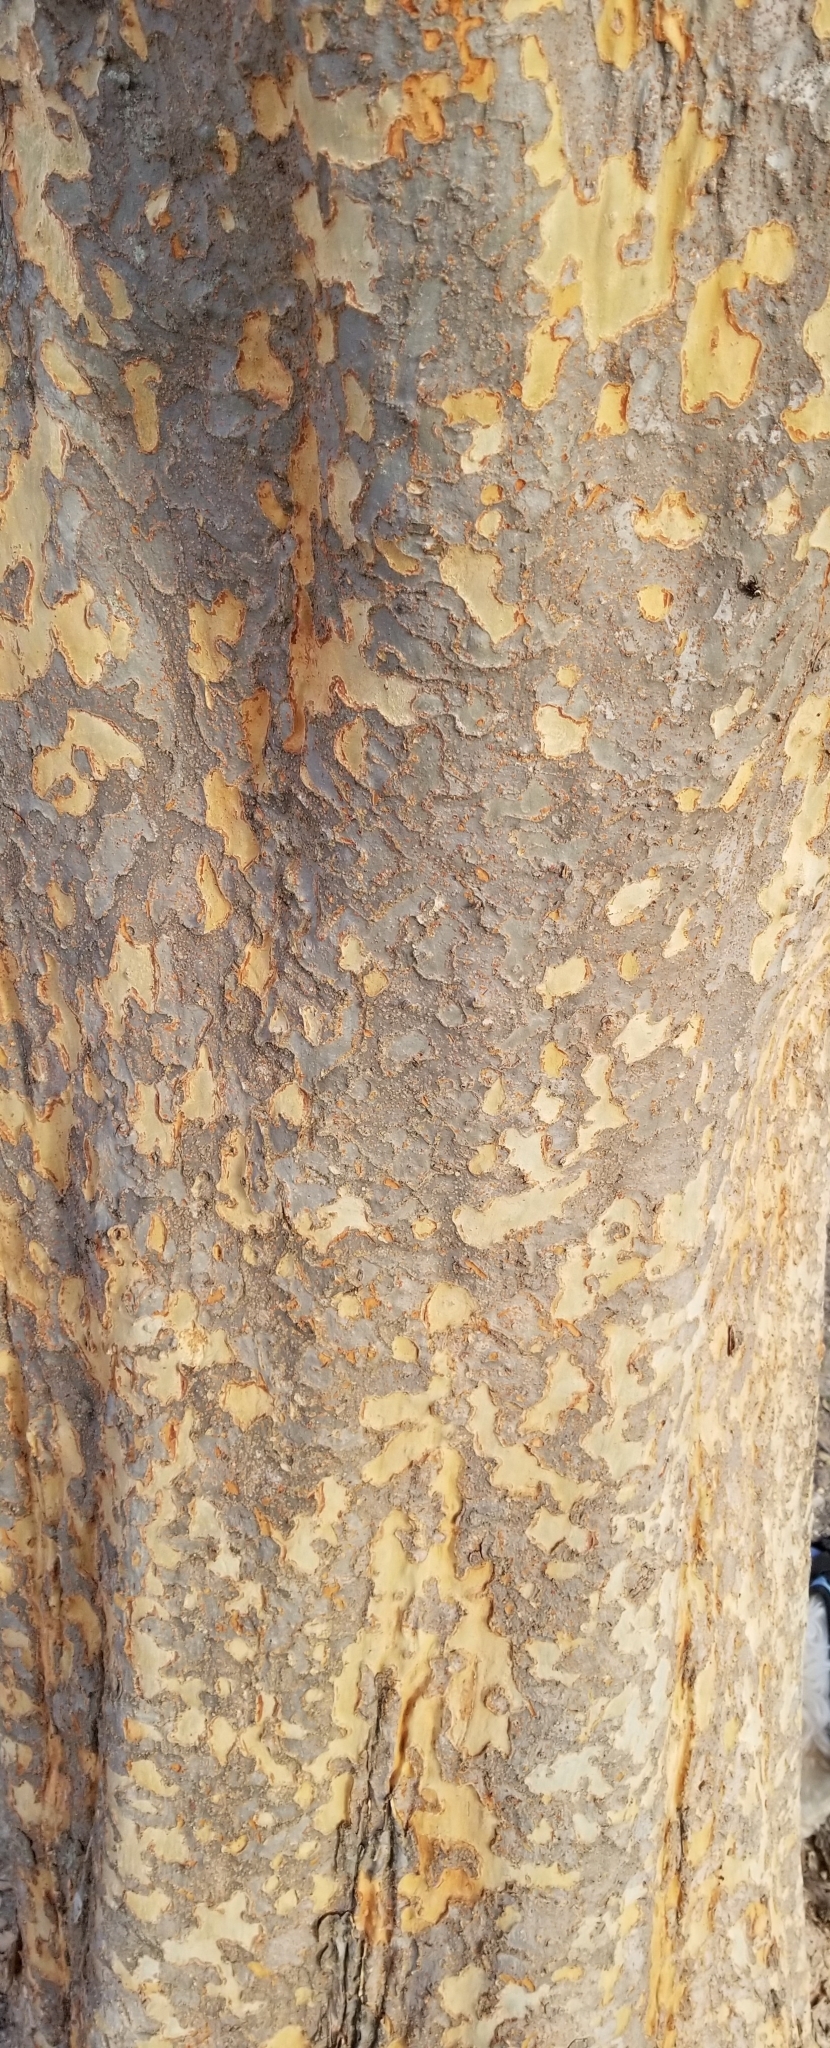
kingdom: Plantae
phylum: Tracheophyta
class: Magnoliopsida
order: Rosales
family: Ulmaceae
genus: Ulmus
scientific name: Ulmus parvifolia
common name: Chinese elm
